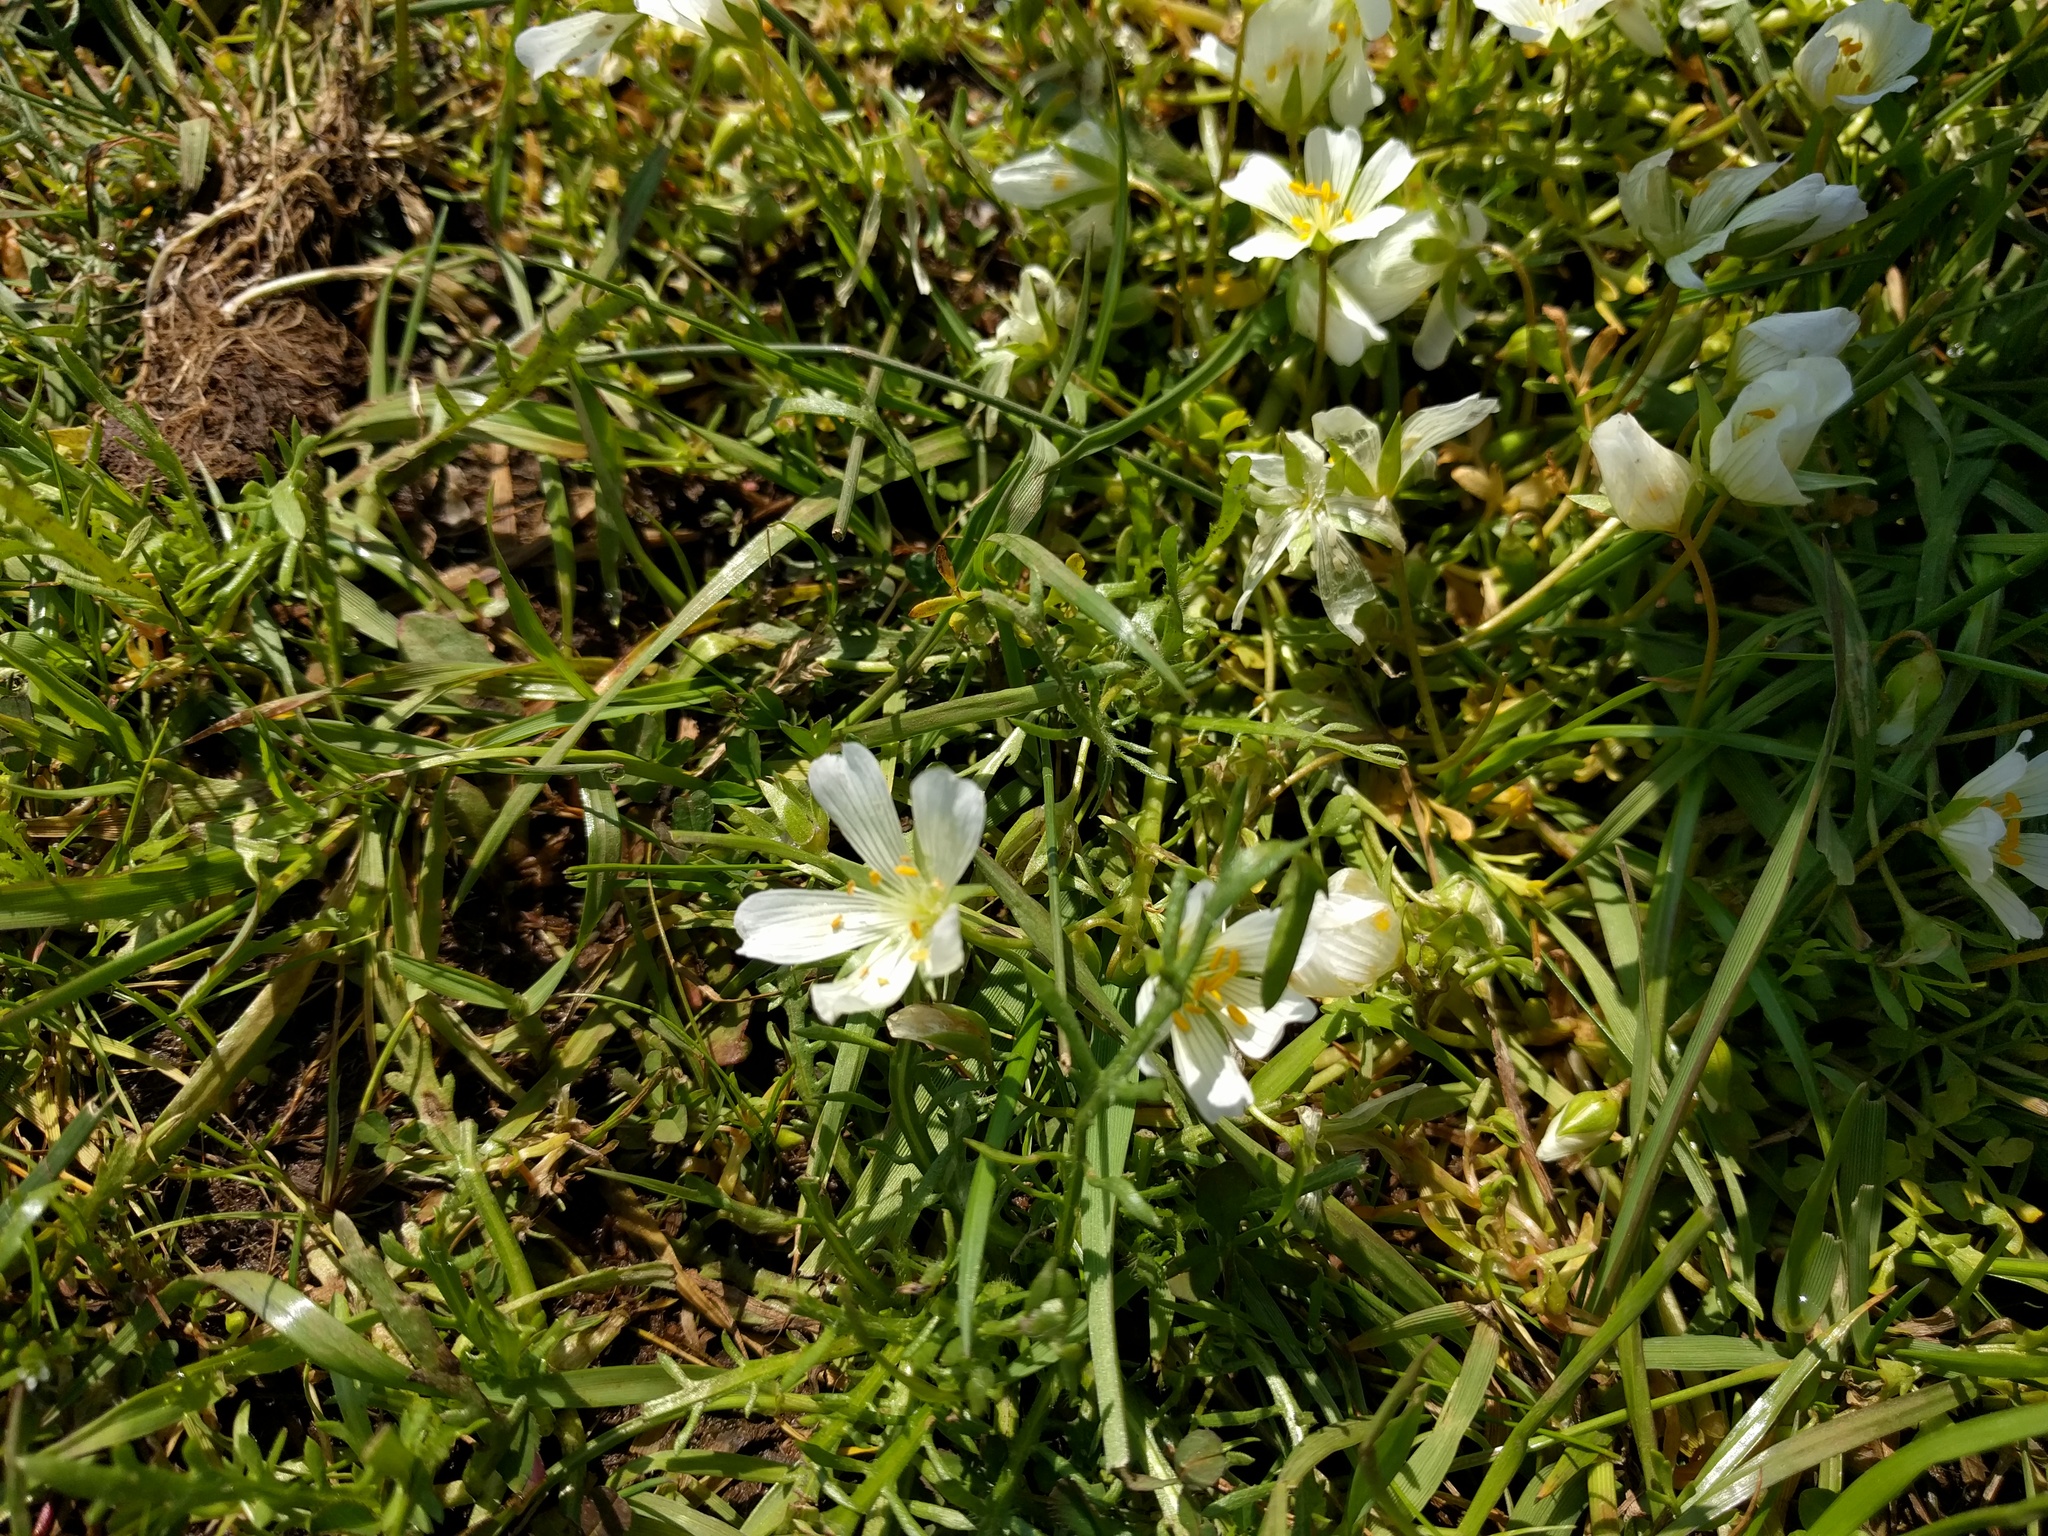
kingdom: Plantae
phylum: Tracheophyta
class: Magnoliopsida
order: Brassicales
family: Limnanthaceae
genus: Limnanthes
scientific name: Limnanthes douglasii
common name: Meadow-foam
